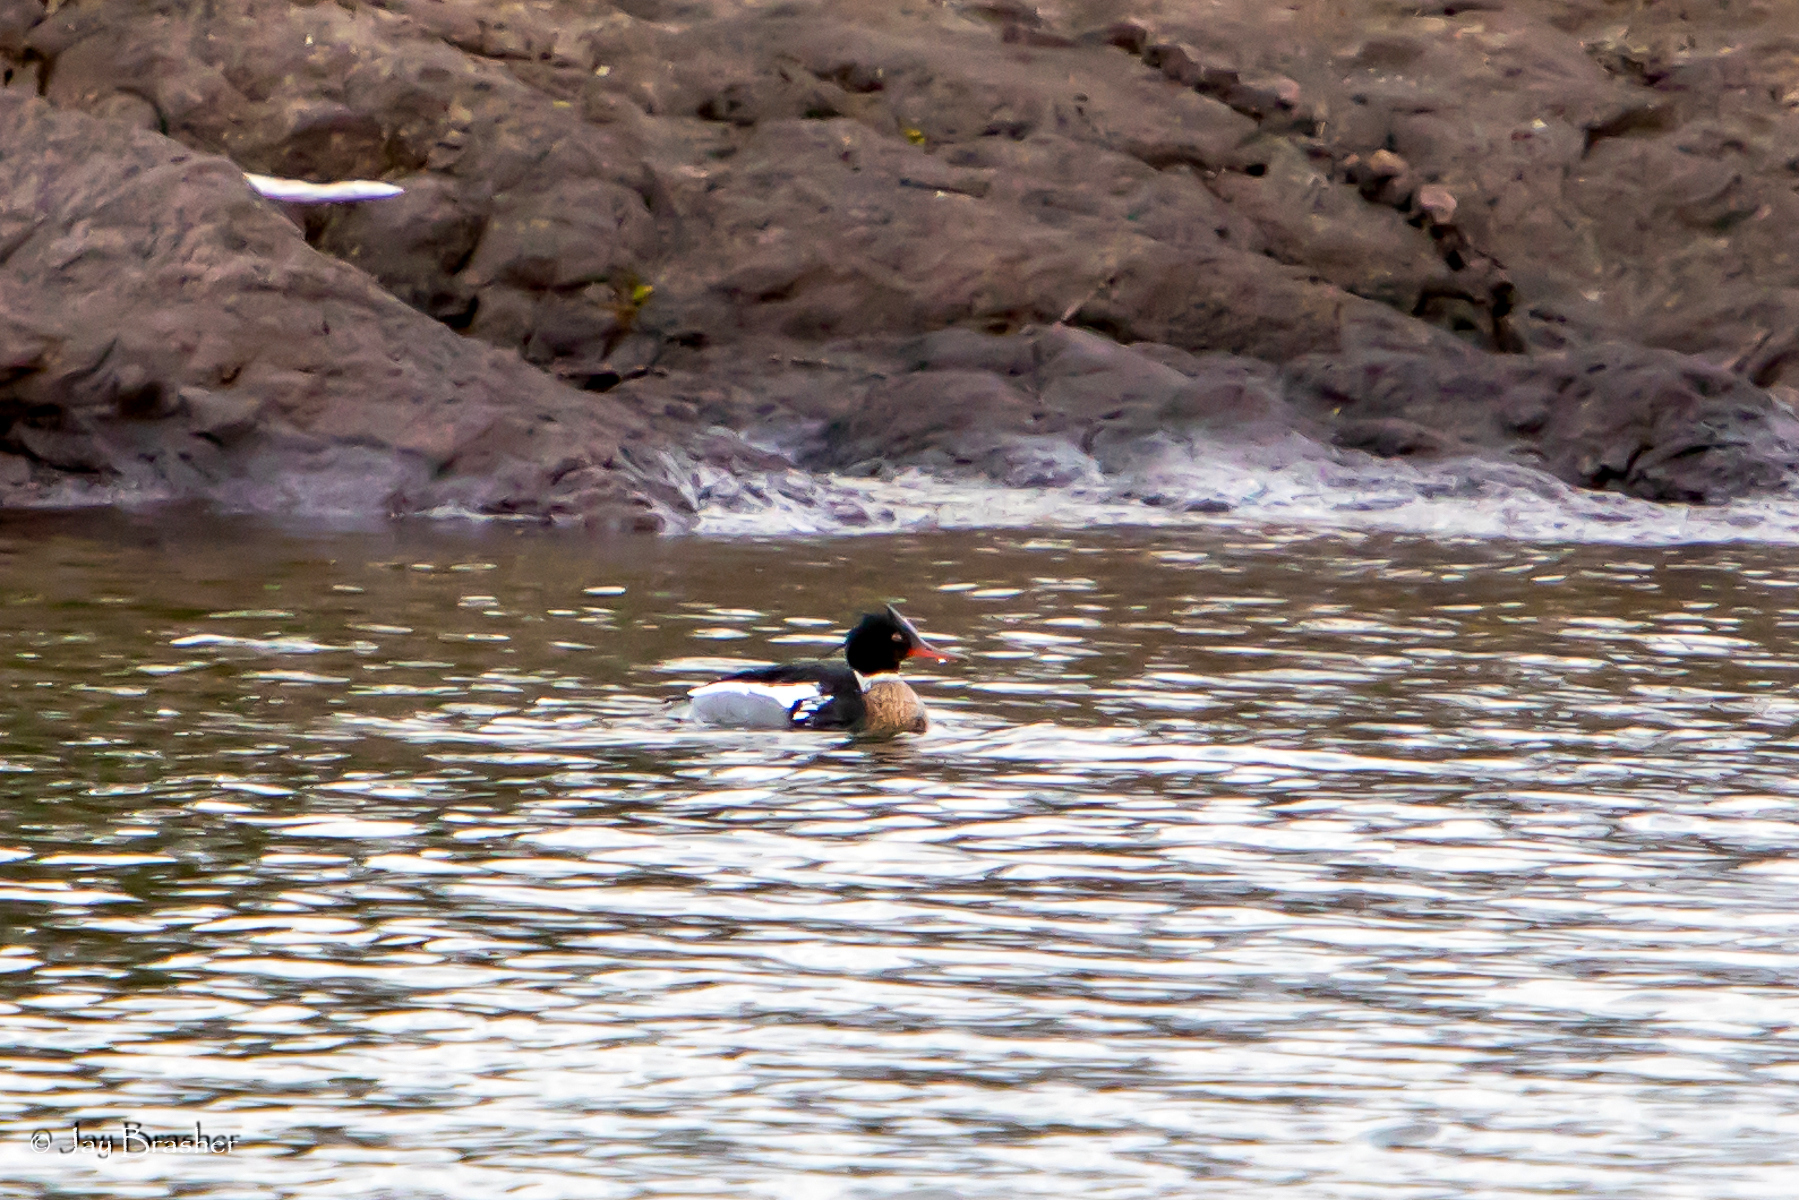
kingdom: Animalia
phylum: Chordata
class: Aves
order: Anseriformes
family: Anatidae
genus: Mergus
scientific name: Mergus serrator
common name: Red-breasted merganser
